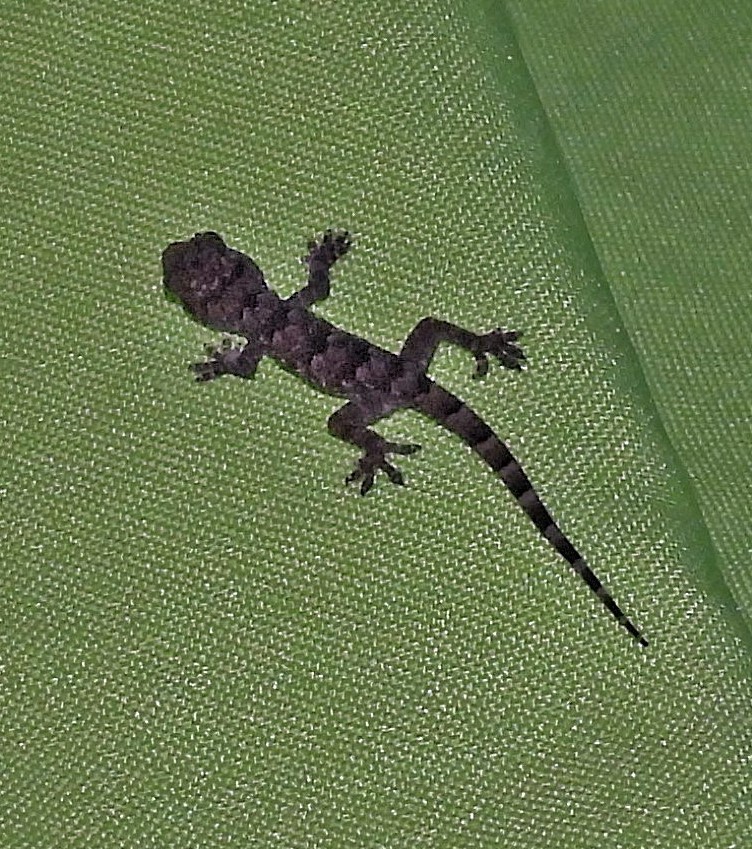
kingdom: Animalia
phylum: Chordata
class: Squamata
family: Gekkonidae
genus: Hemidactylus
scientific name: Hemidactylus mabouia
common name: House gecko
